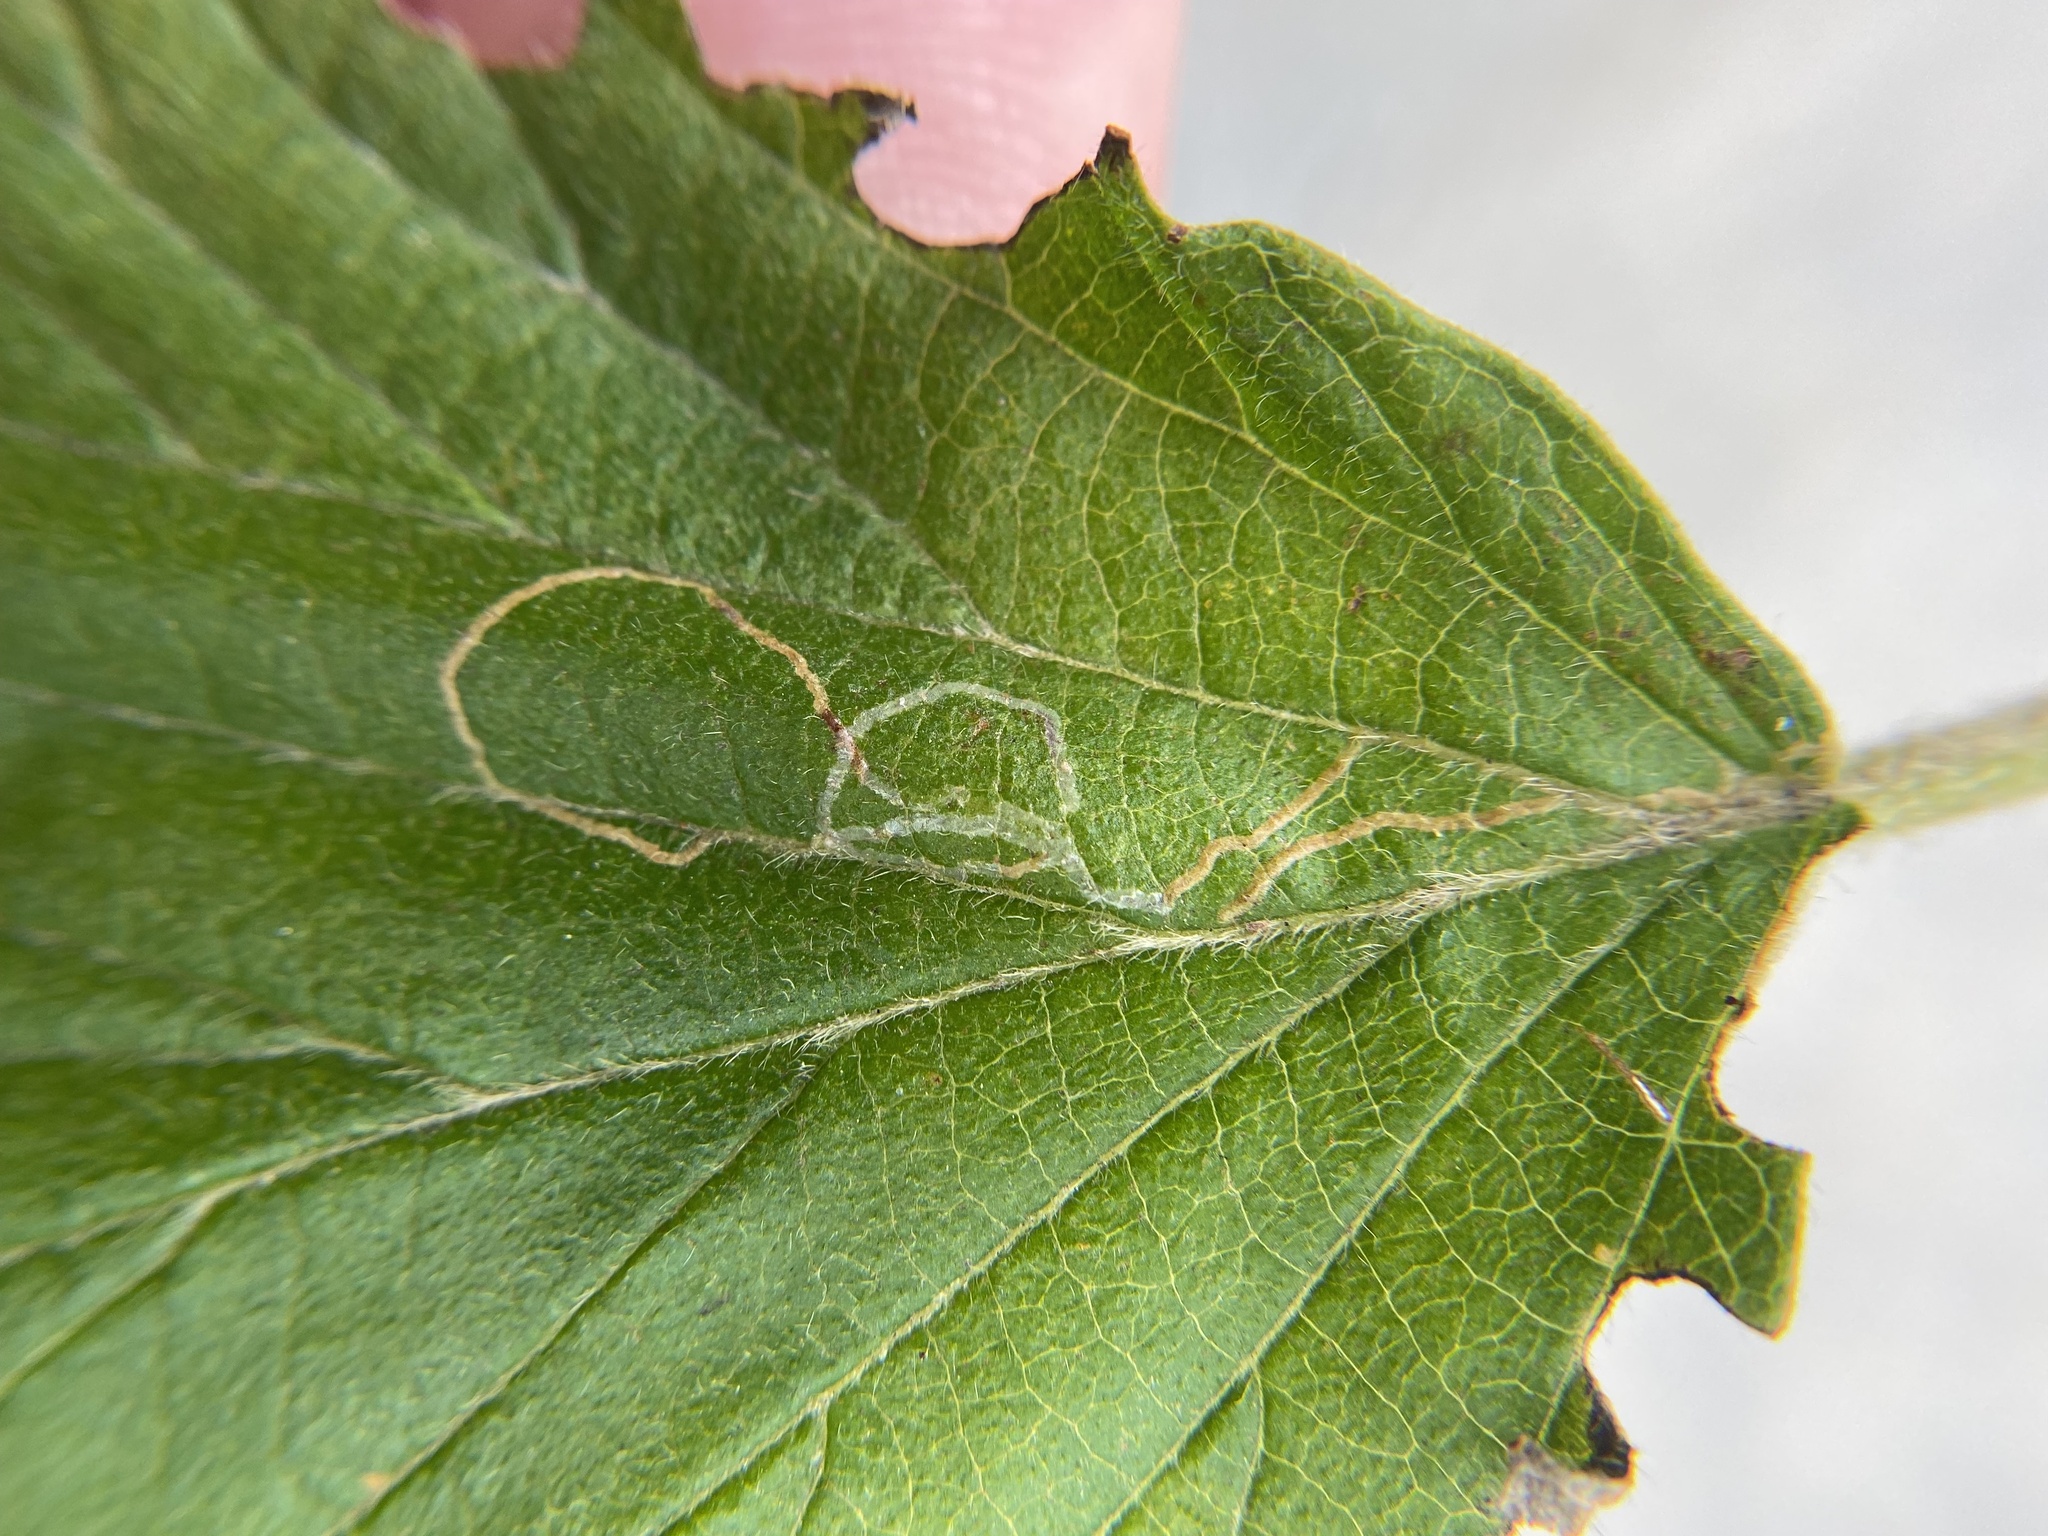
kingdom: Animalia
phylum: Arthropoda
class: Insecta
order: Lepidoptera
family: Gracillariidae
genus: Marmara
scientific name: Marmara viburnella
